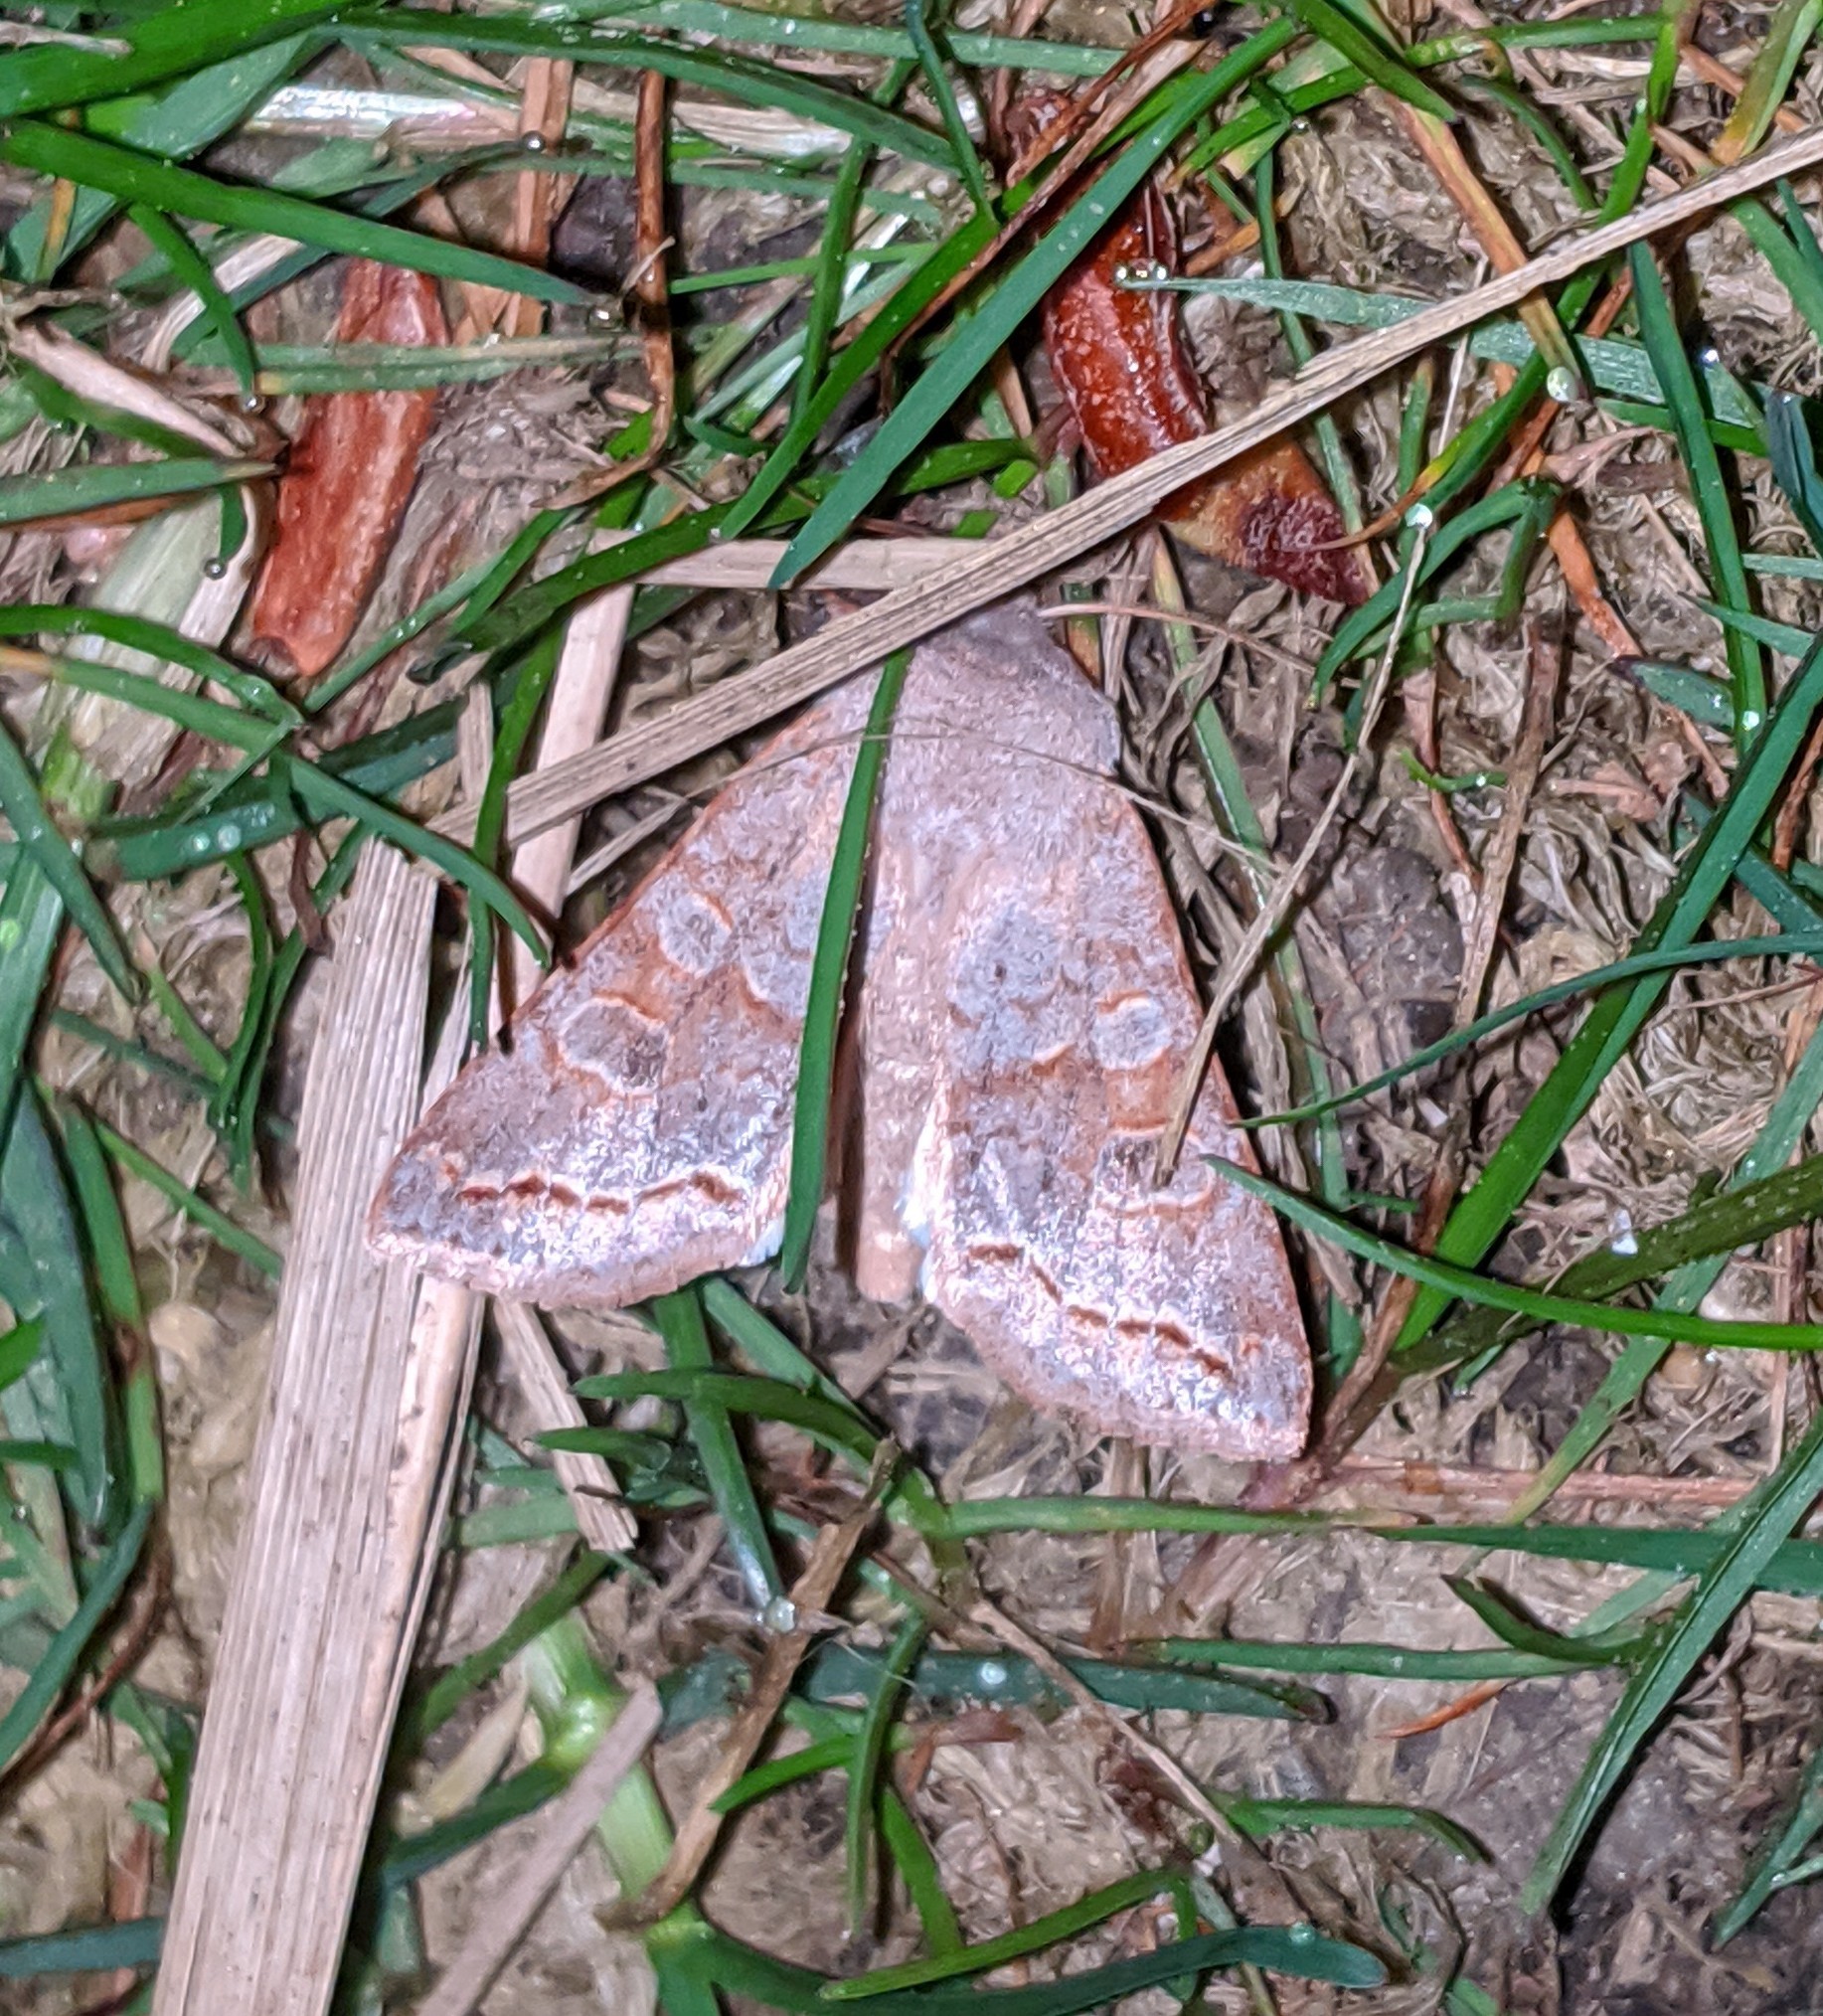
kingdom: Animalia
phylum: Arthropoda
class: Insecta
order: Lepidoptera
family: Noctuidae
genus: Orthosia
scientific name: Orthosia revicta
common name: Rusty whitesided caterpillar
